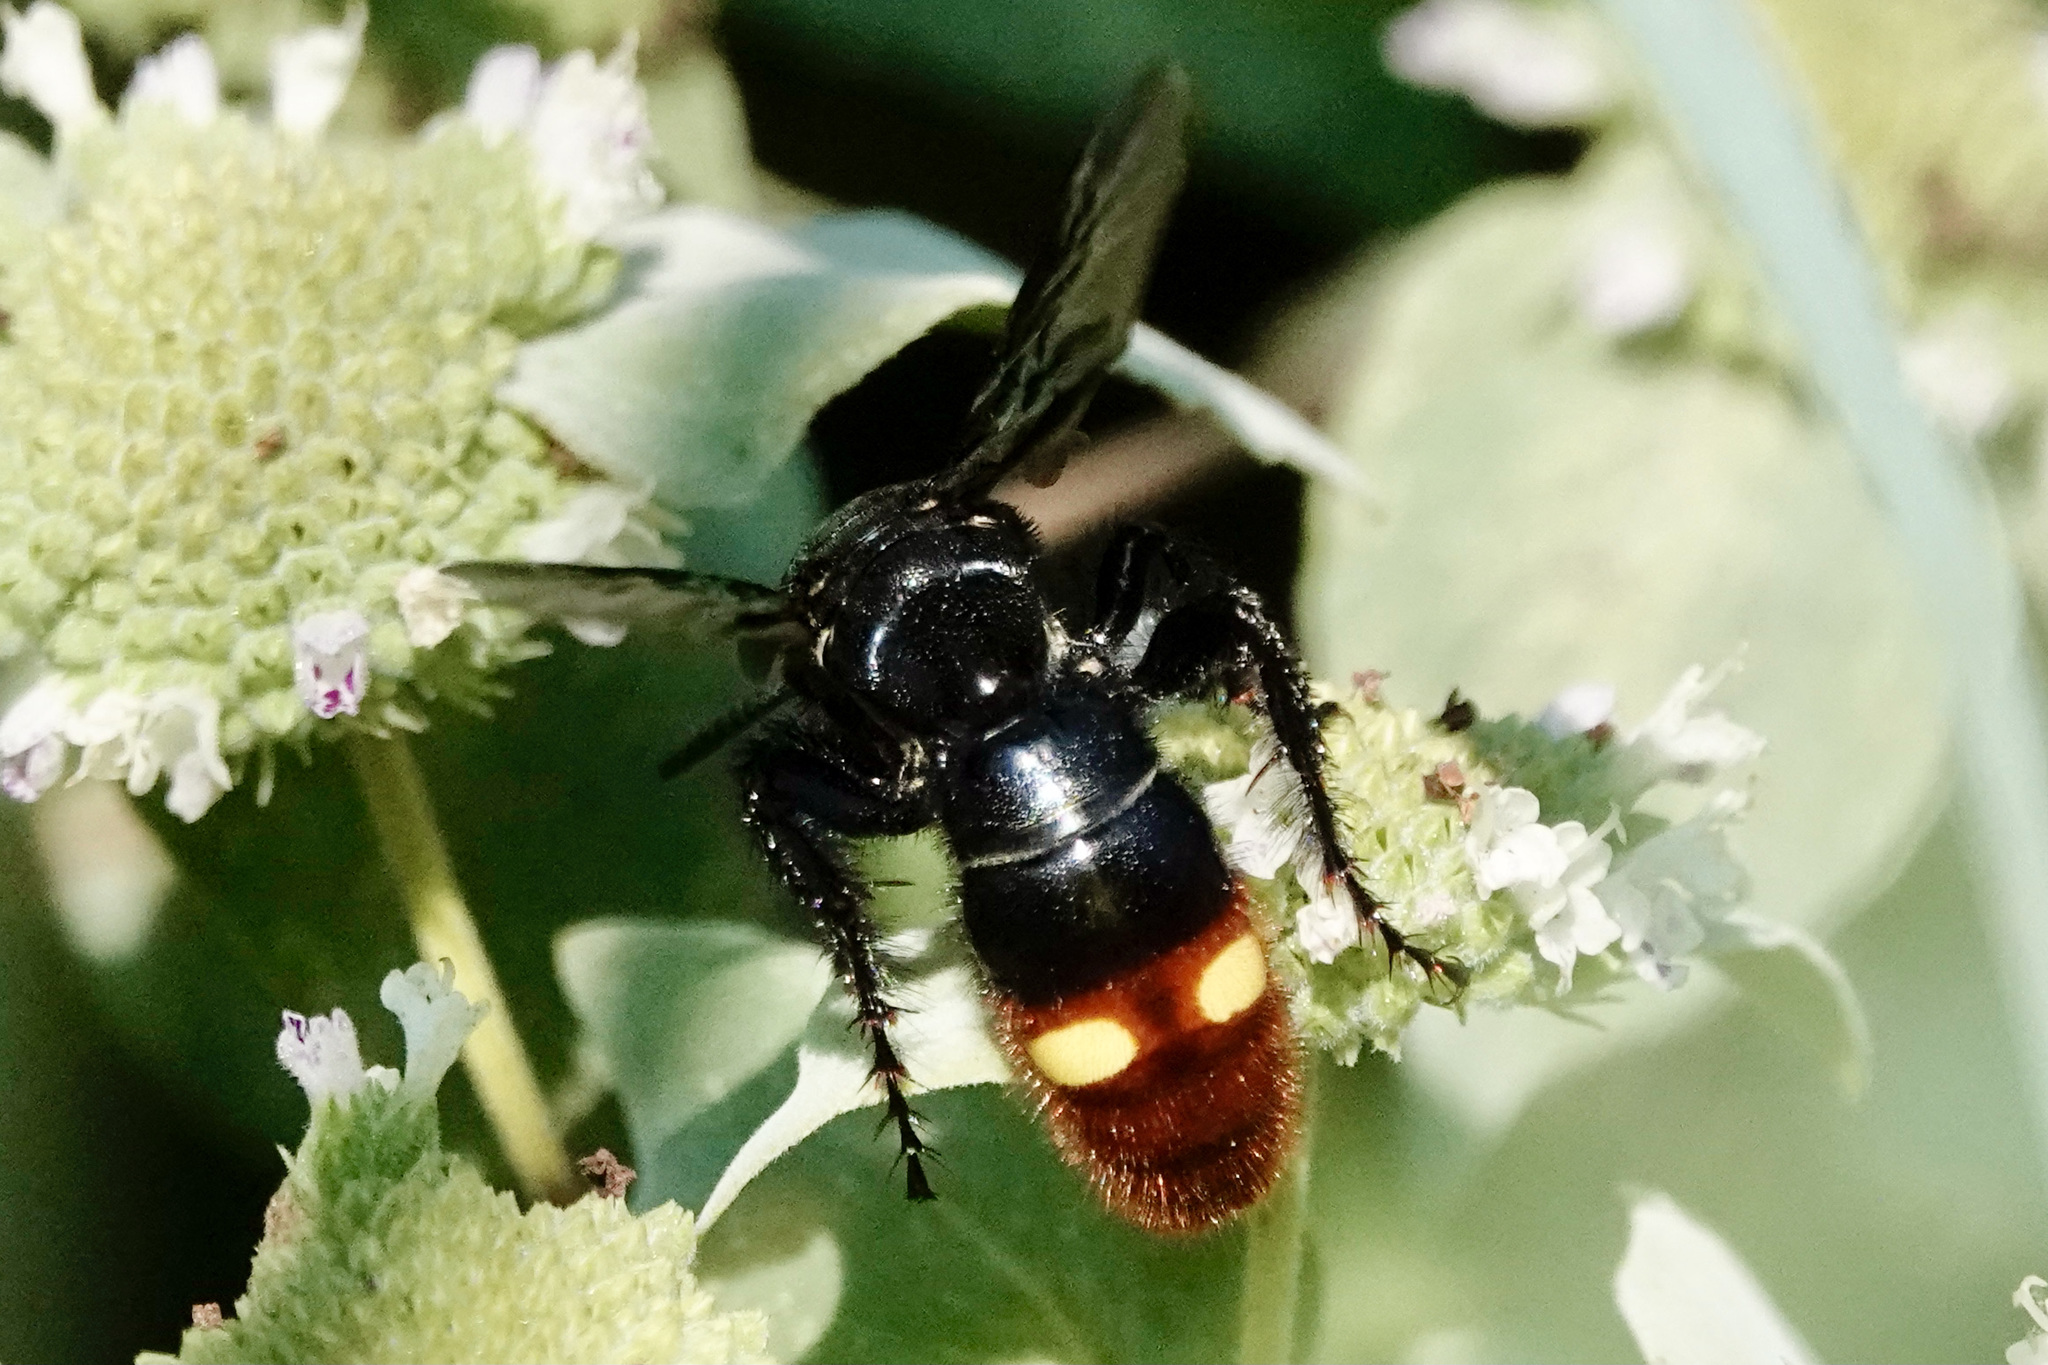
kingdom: Animalia
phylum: Arthropoda
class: Insecta
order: Hymenoptera
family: Scoliidae
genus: Scolia
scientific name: Scolia dubia
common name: Blue-winged scoliid wasp
